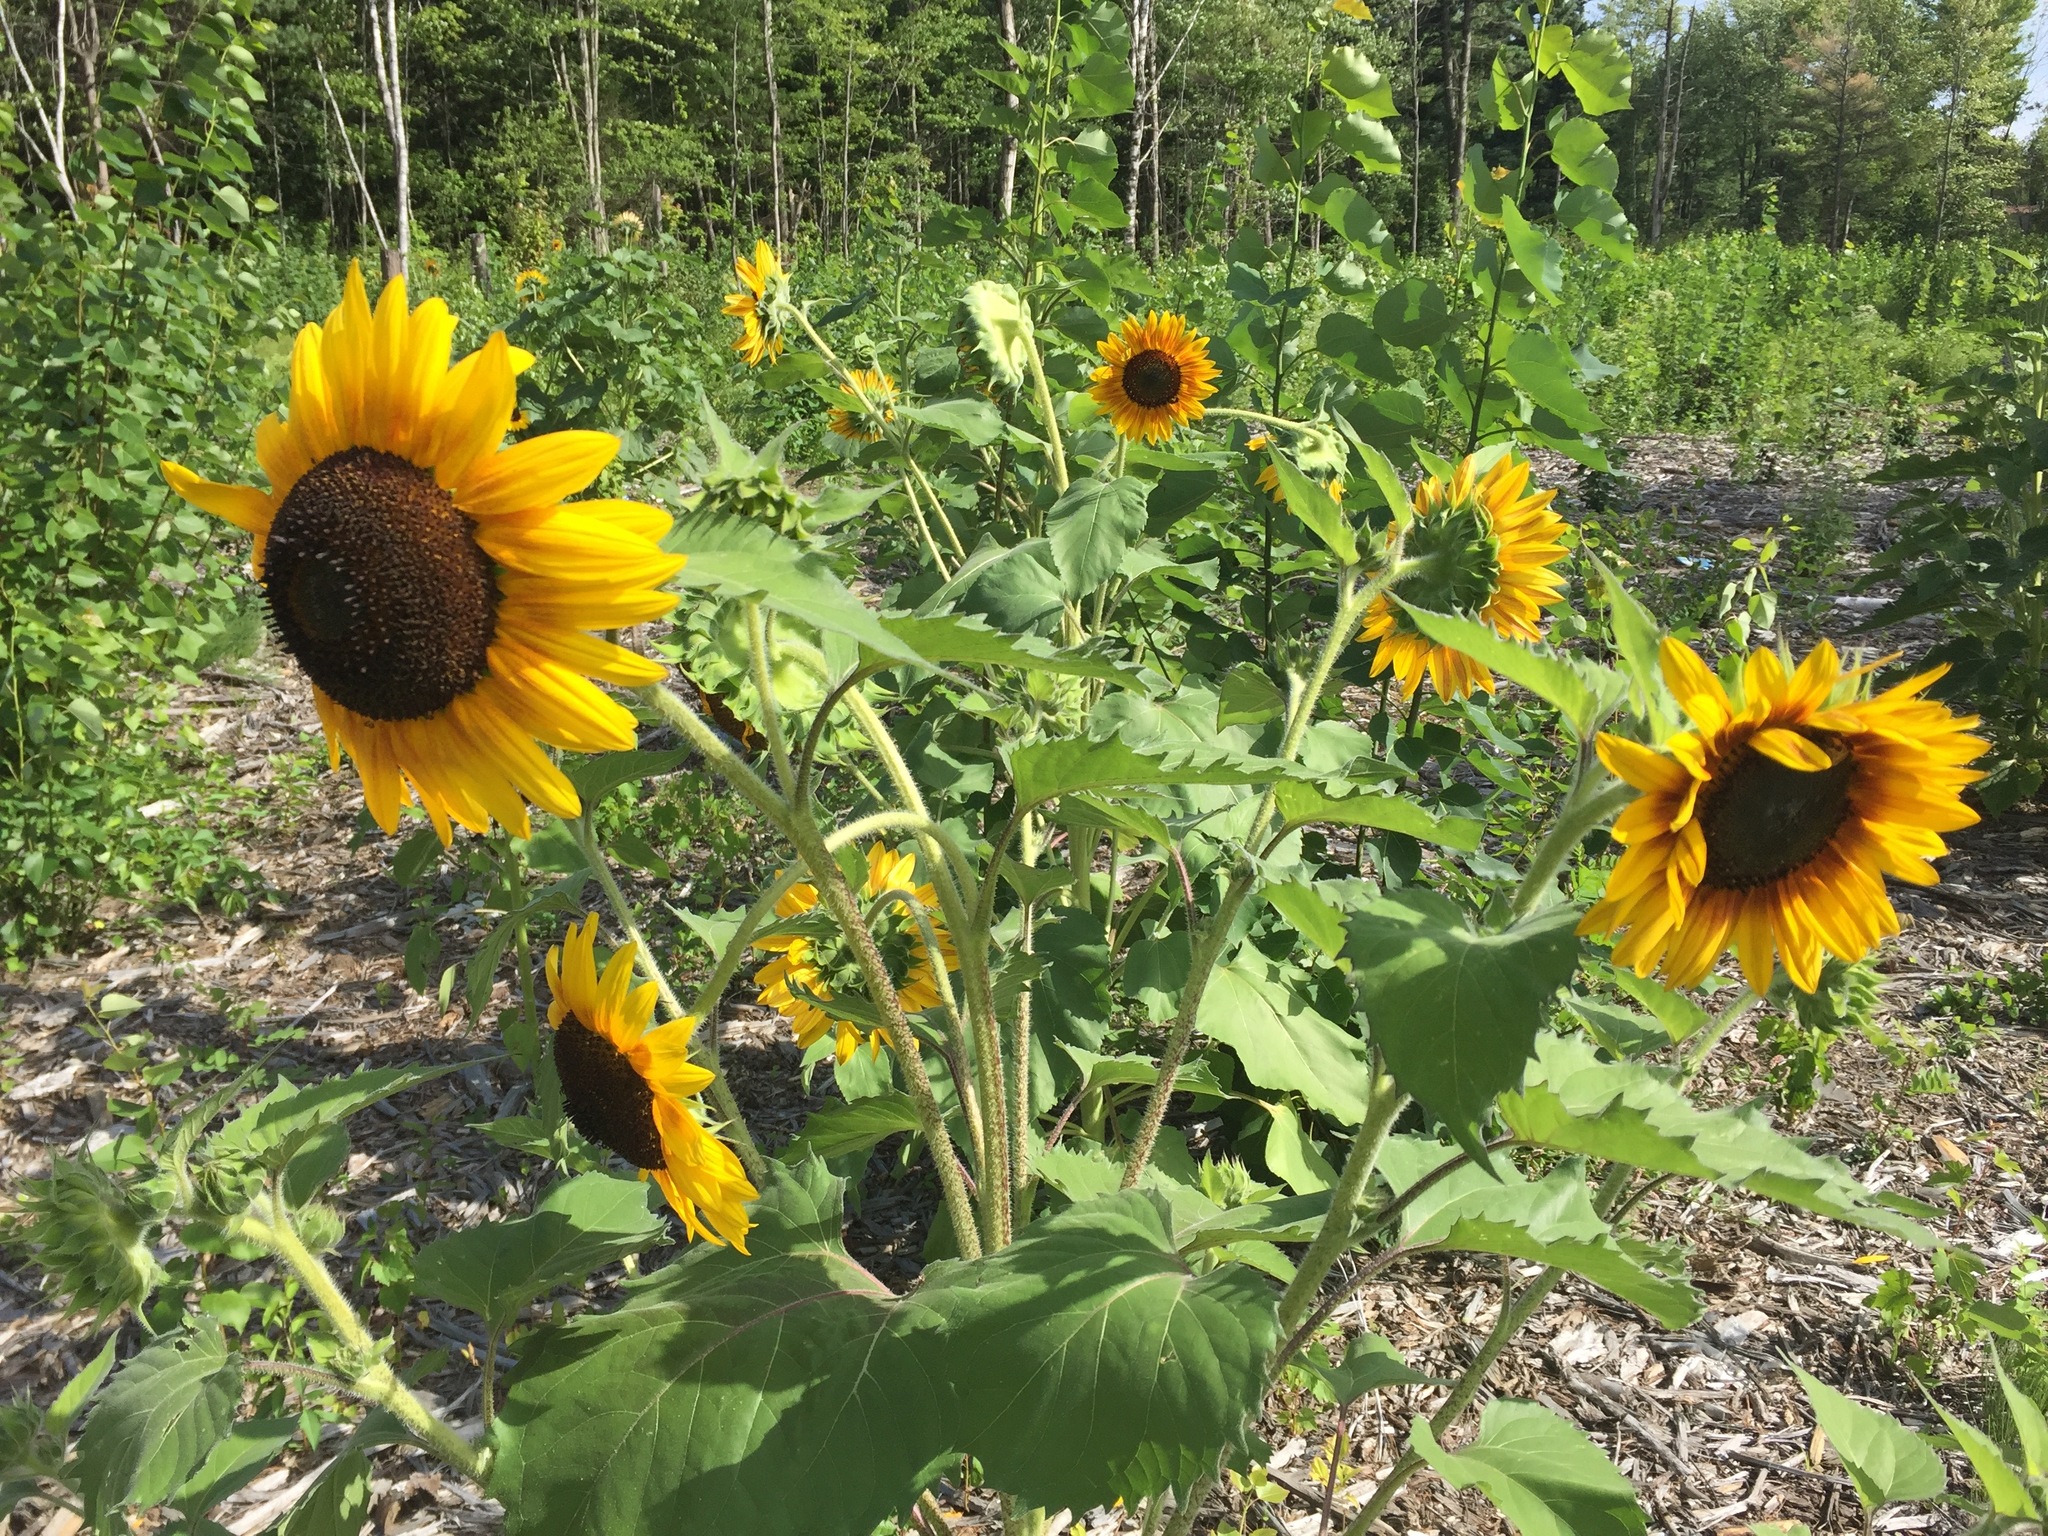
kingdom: Plantae
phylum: Tracheophyta
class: Magnoliopsida
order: Asterales
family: Asteraceae
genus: Helianthus
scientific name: Helianthus annuus
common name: Sunflower
